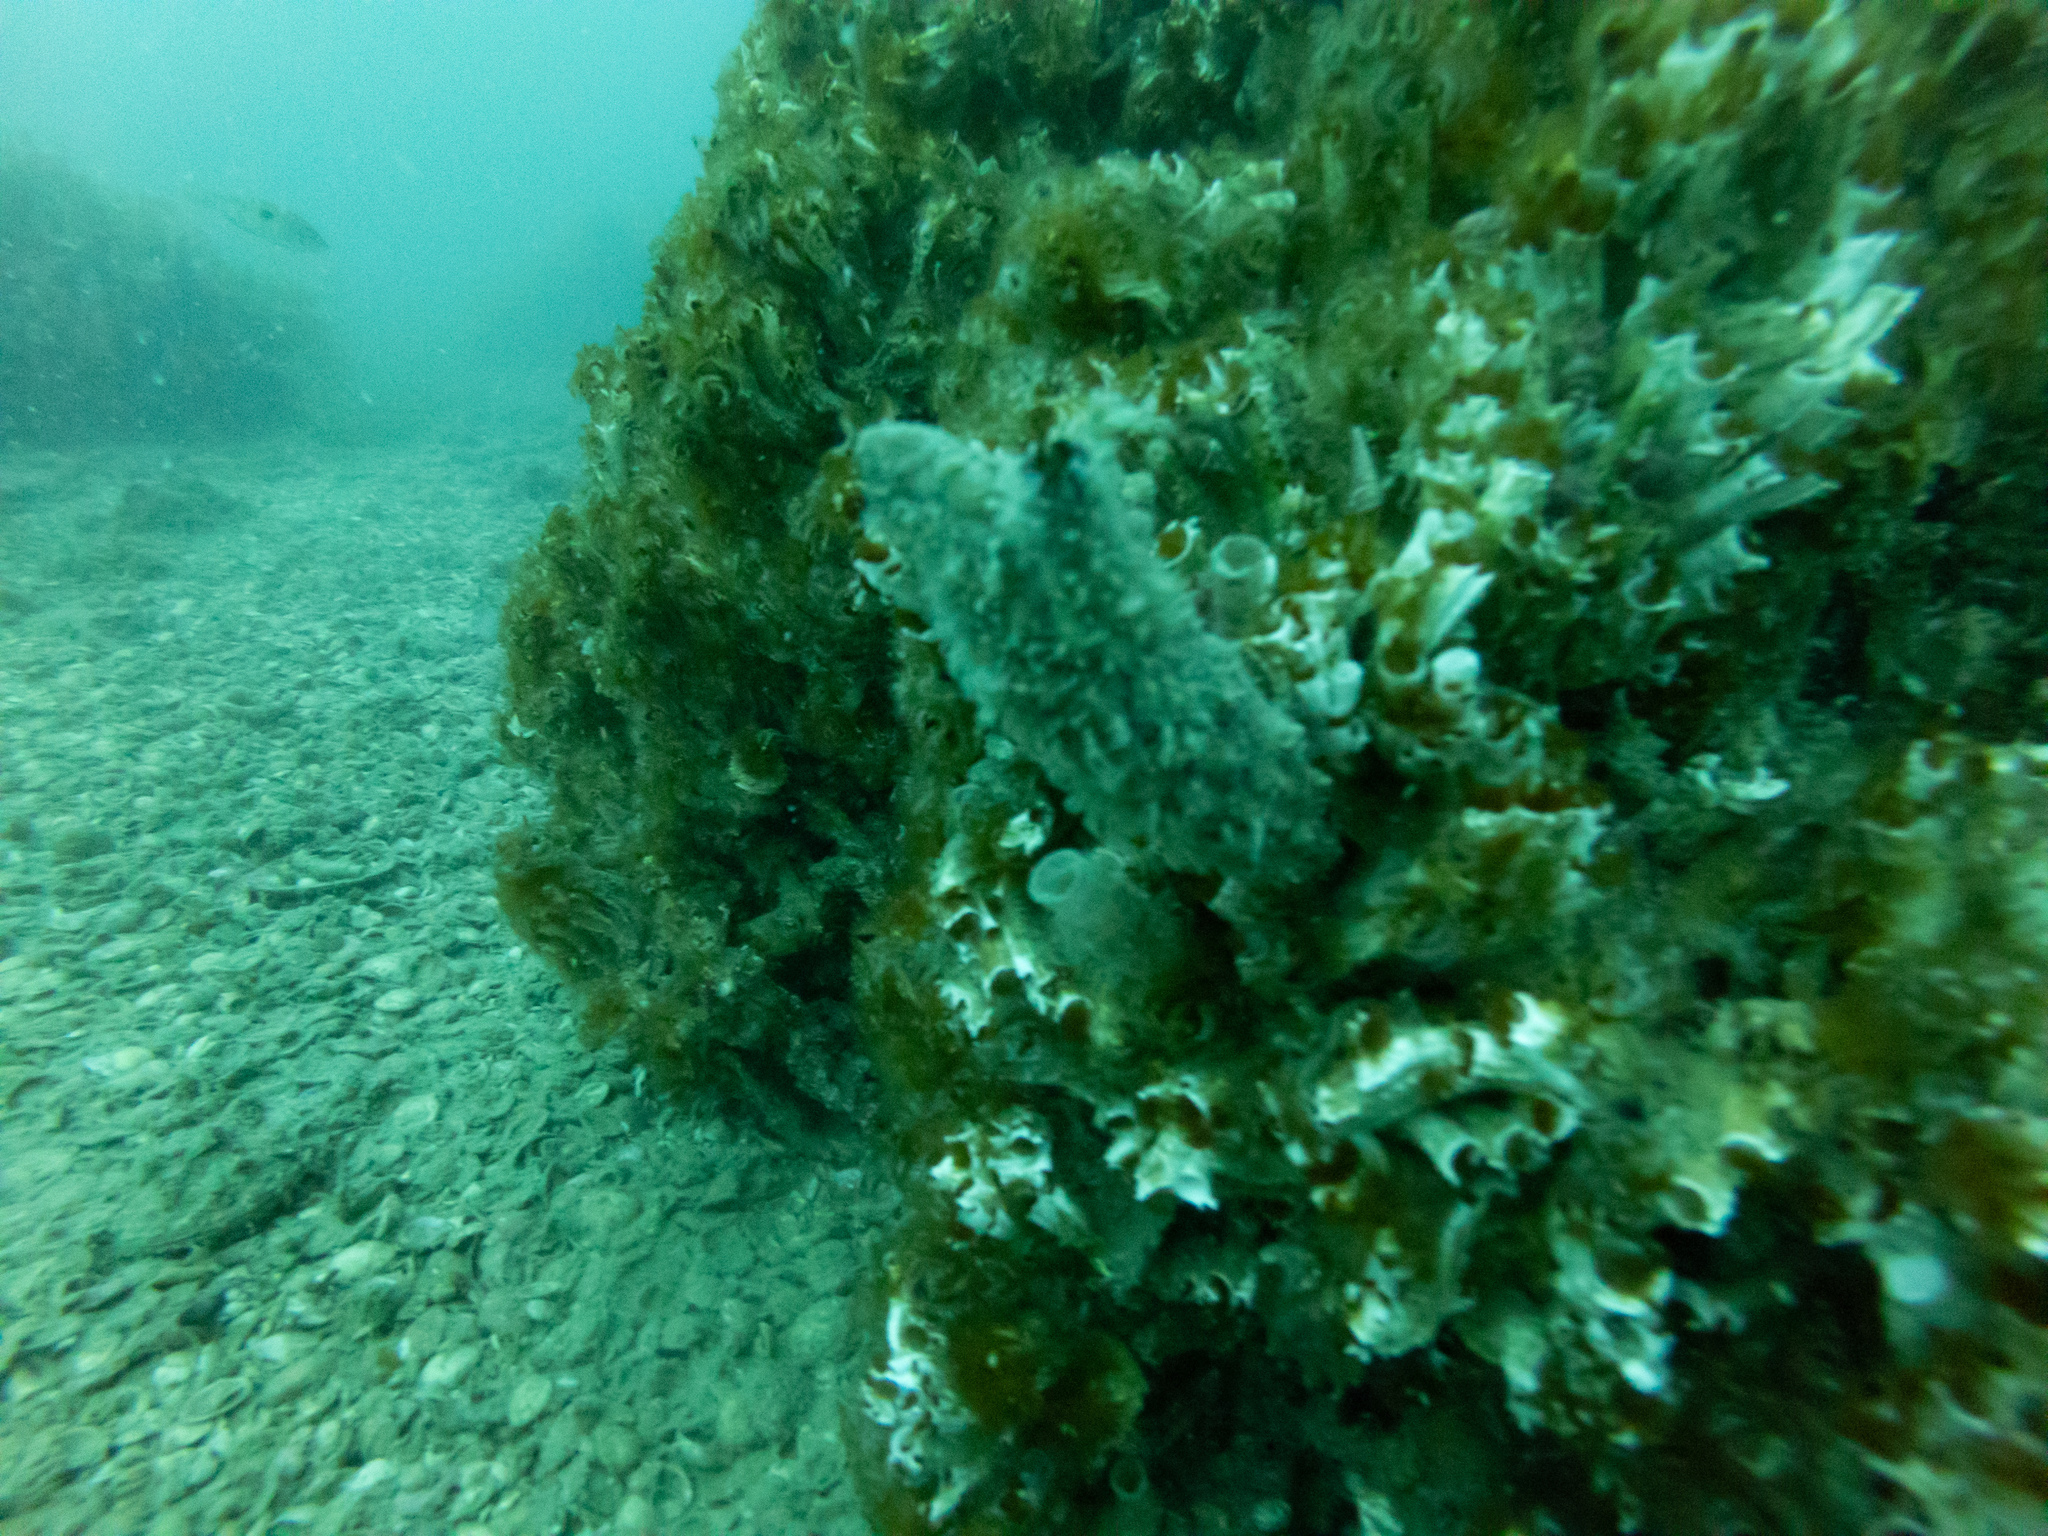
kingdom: Animalia
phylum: Chordata
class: Ascidiacea
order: Stolidobranchia
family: Styelidae
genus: Styela
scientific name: Styela clava
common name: Leathery sea squirt
